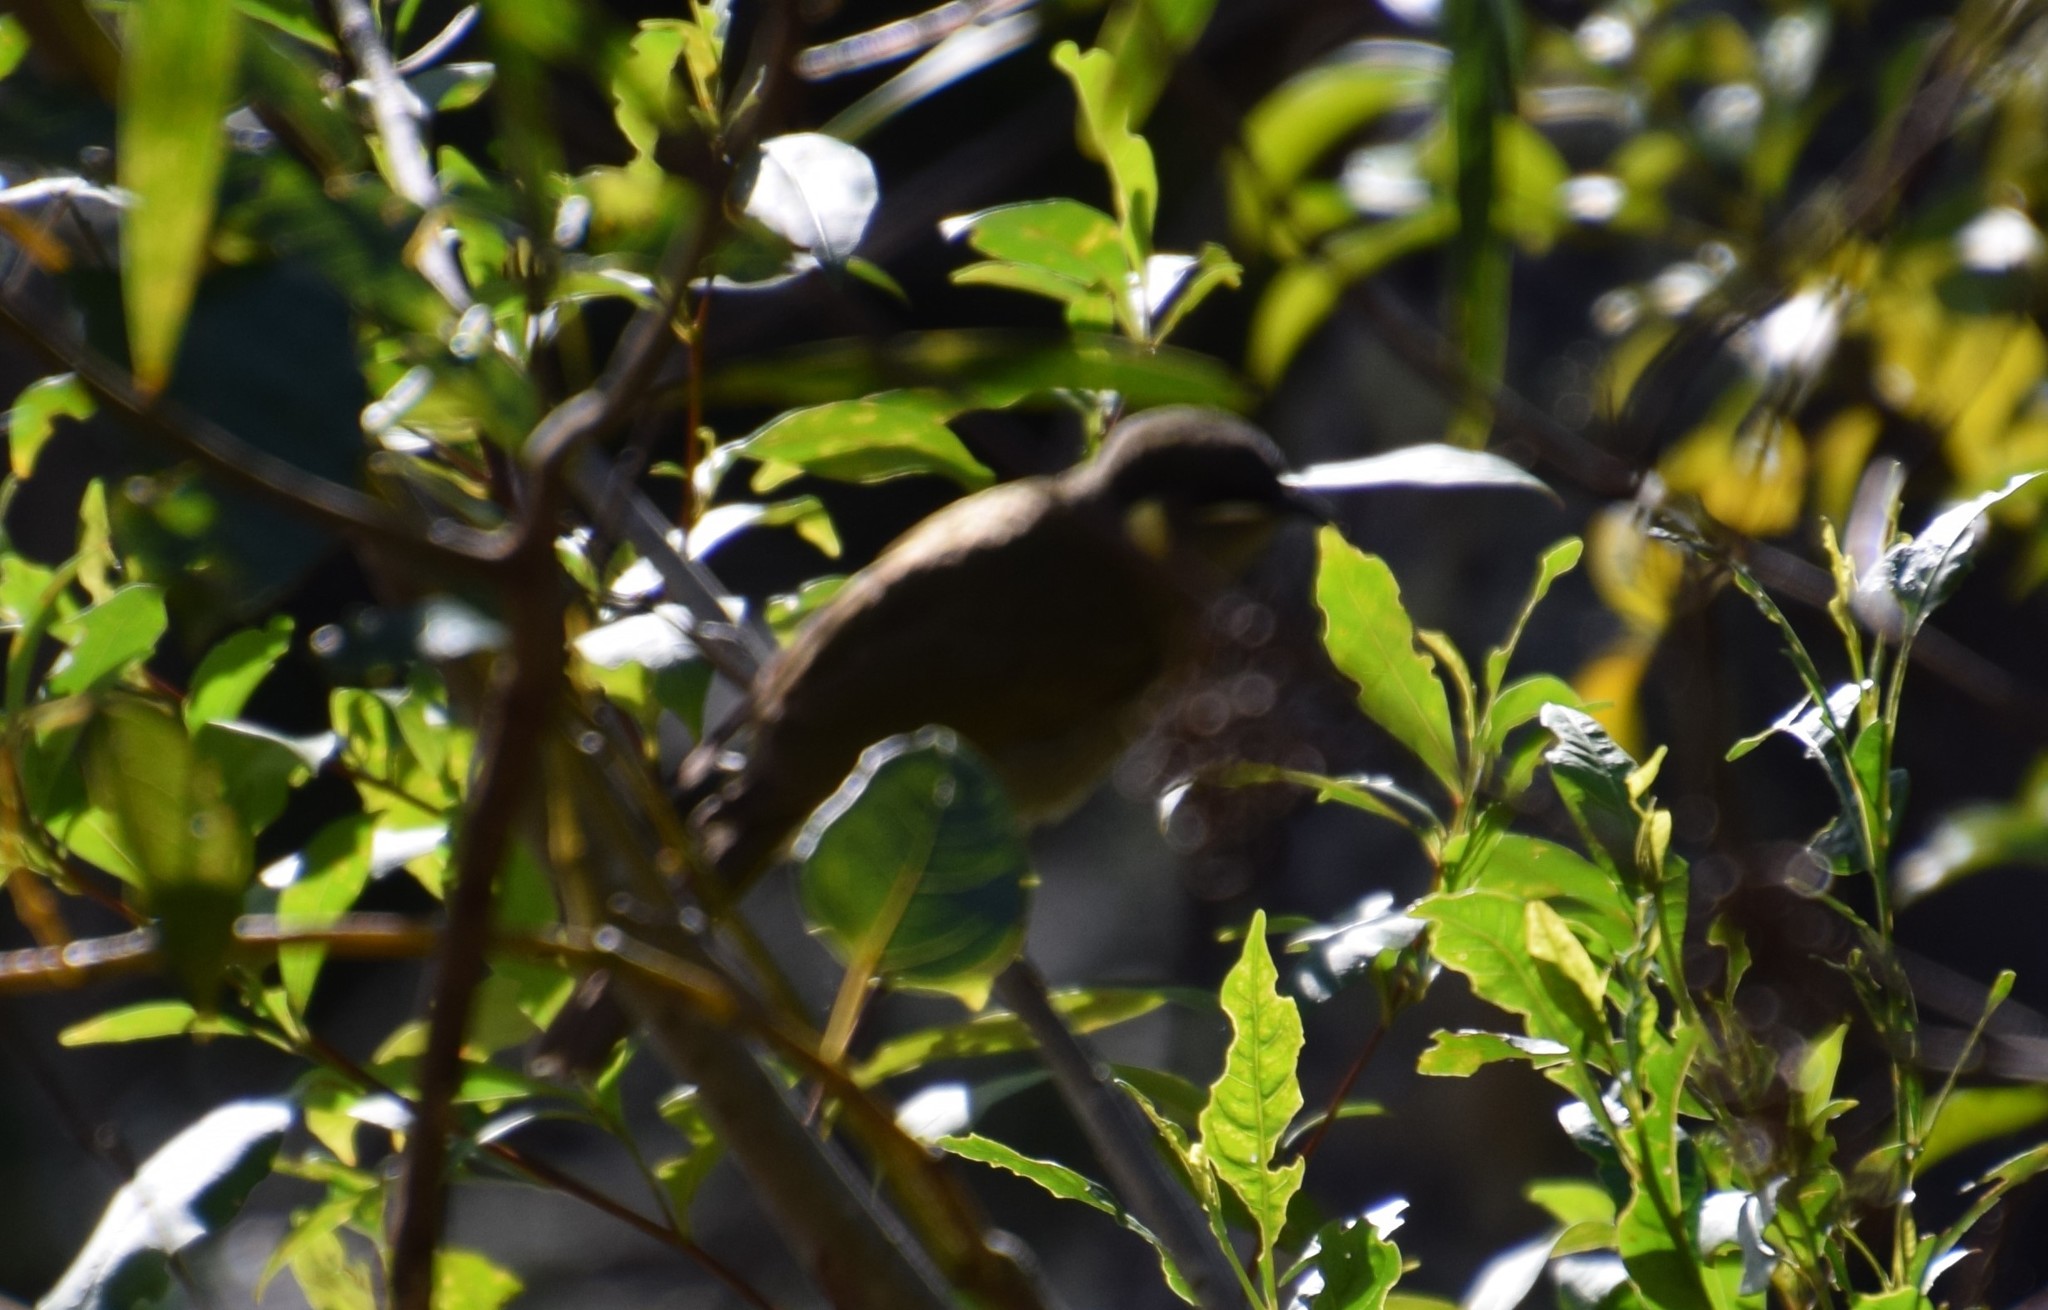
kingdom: Animalia
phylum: Chordata
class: Aves
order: Passeriformes
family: Meliphagidae
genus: Meliphaga
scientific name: Meliphaga lewinii
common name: Lewin's honeyeater
